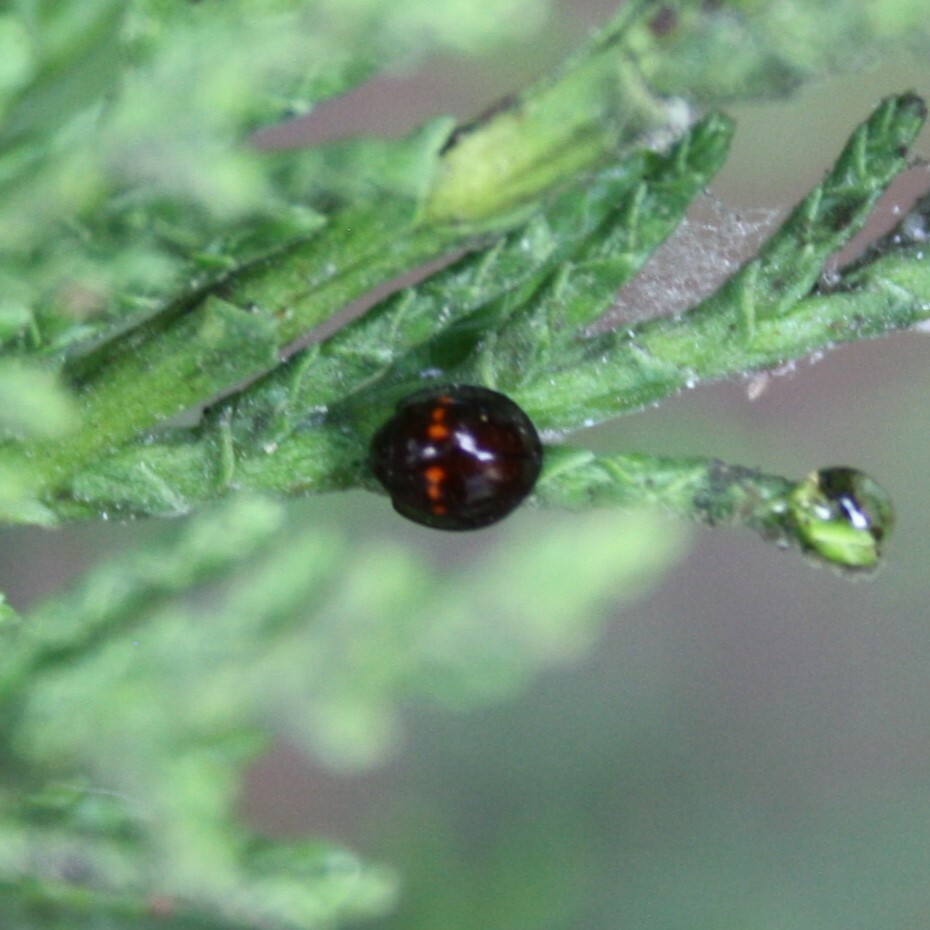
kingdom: Animalia
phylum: Arthropoda
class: Insecta
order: Coleoptera
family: Coccinellidae
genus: Chilocorus
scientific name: Chilocorus bipustulatus
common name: Heather ladybird
